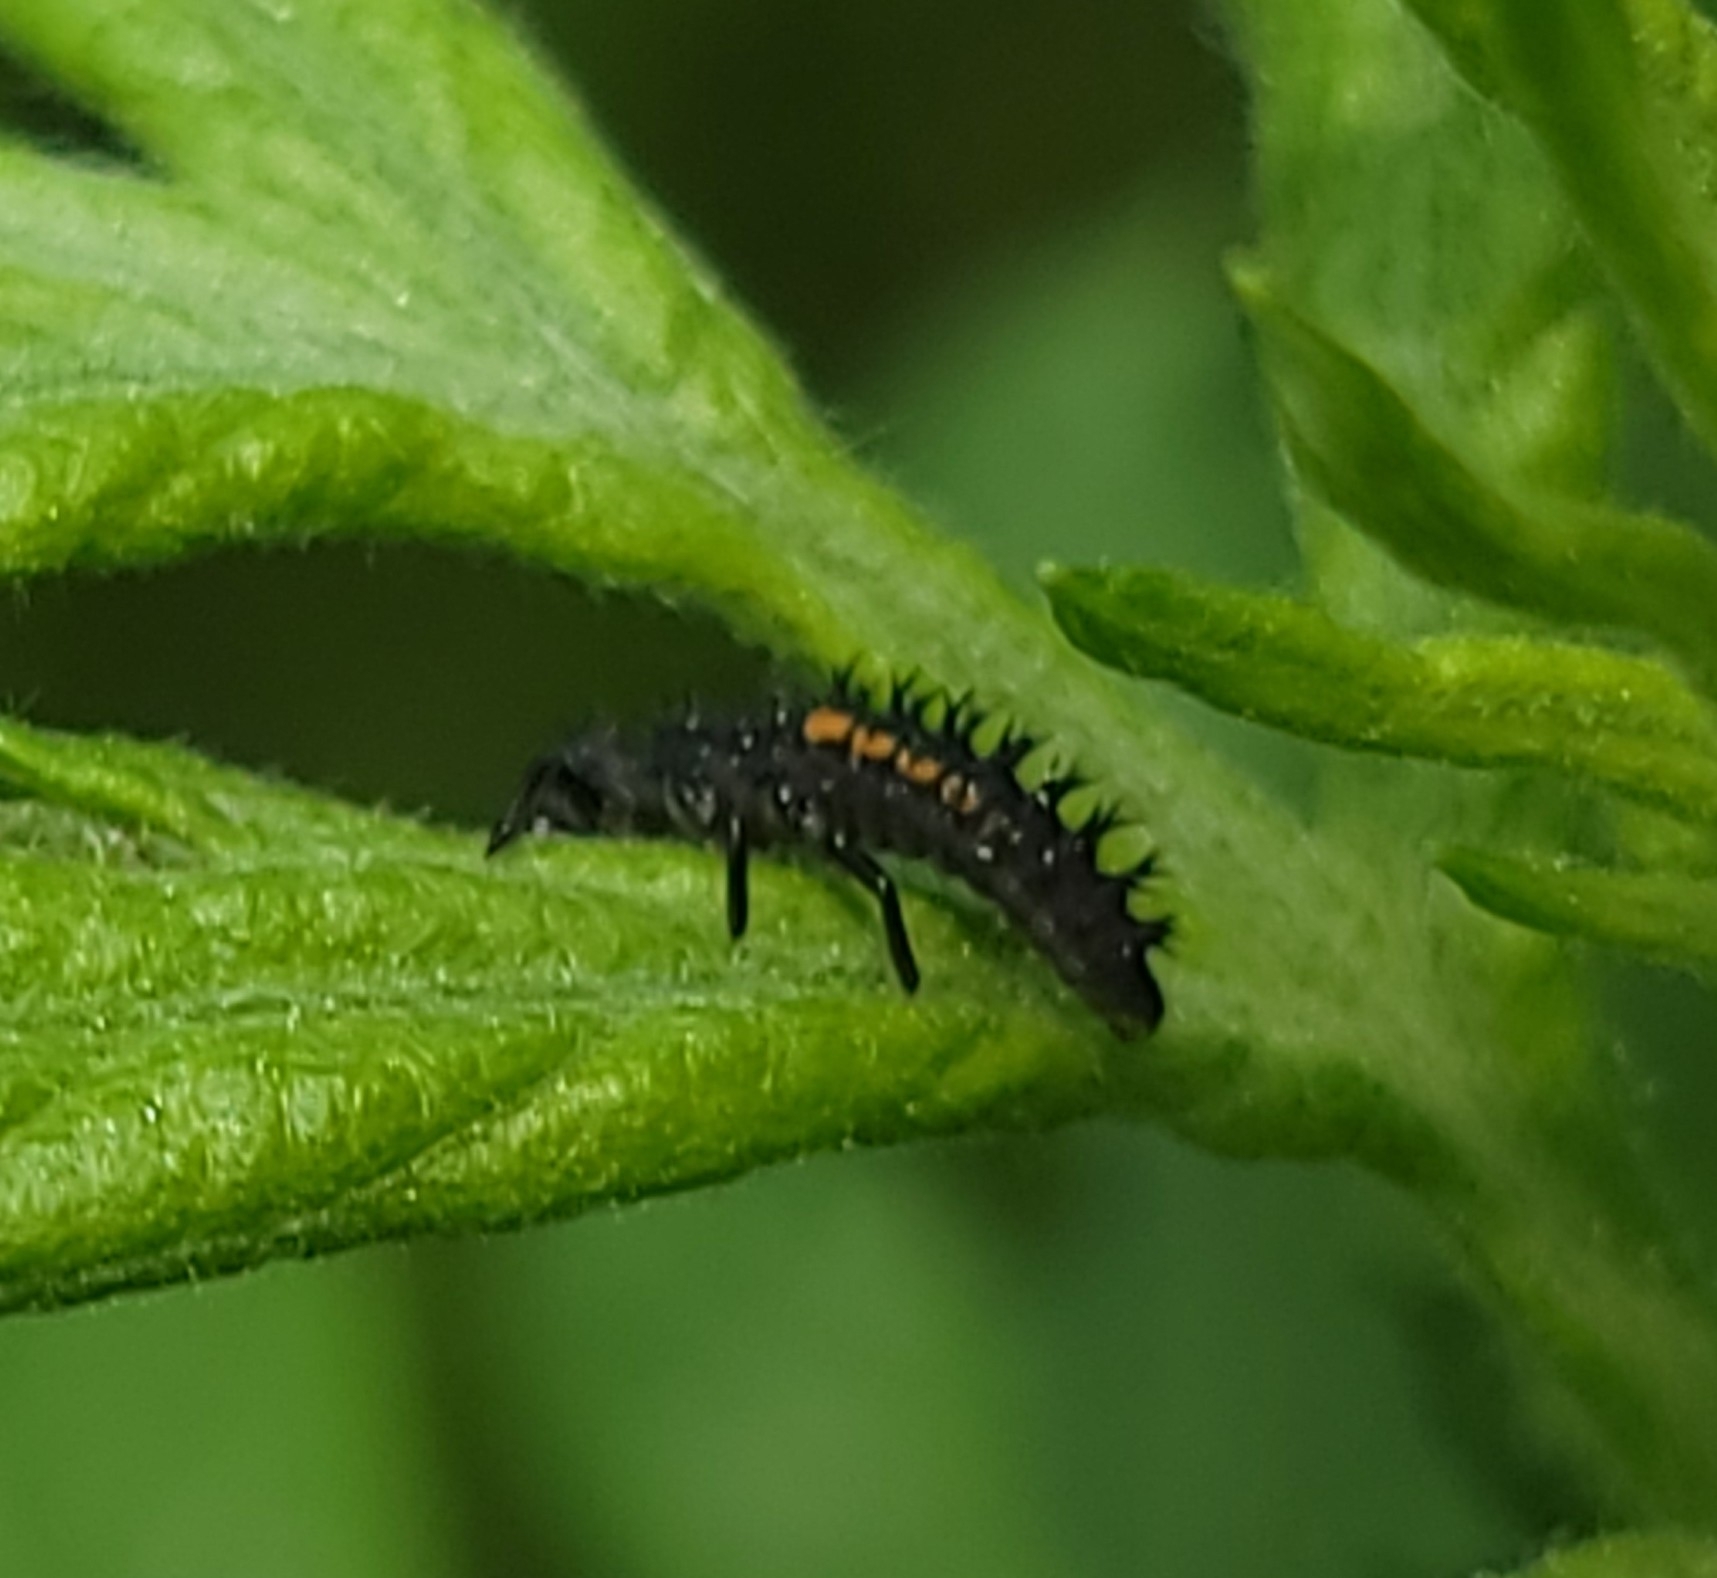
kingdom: Animalia
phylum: Arthropoda
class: Insecta
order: Coleoptera
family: Coccinellidae
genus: Harmonia
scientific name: Harmonia axyridis
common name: Harlequin ladybird
